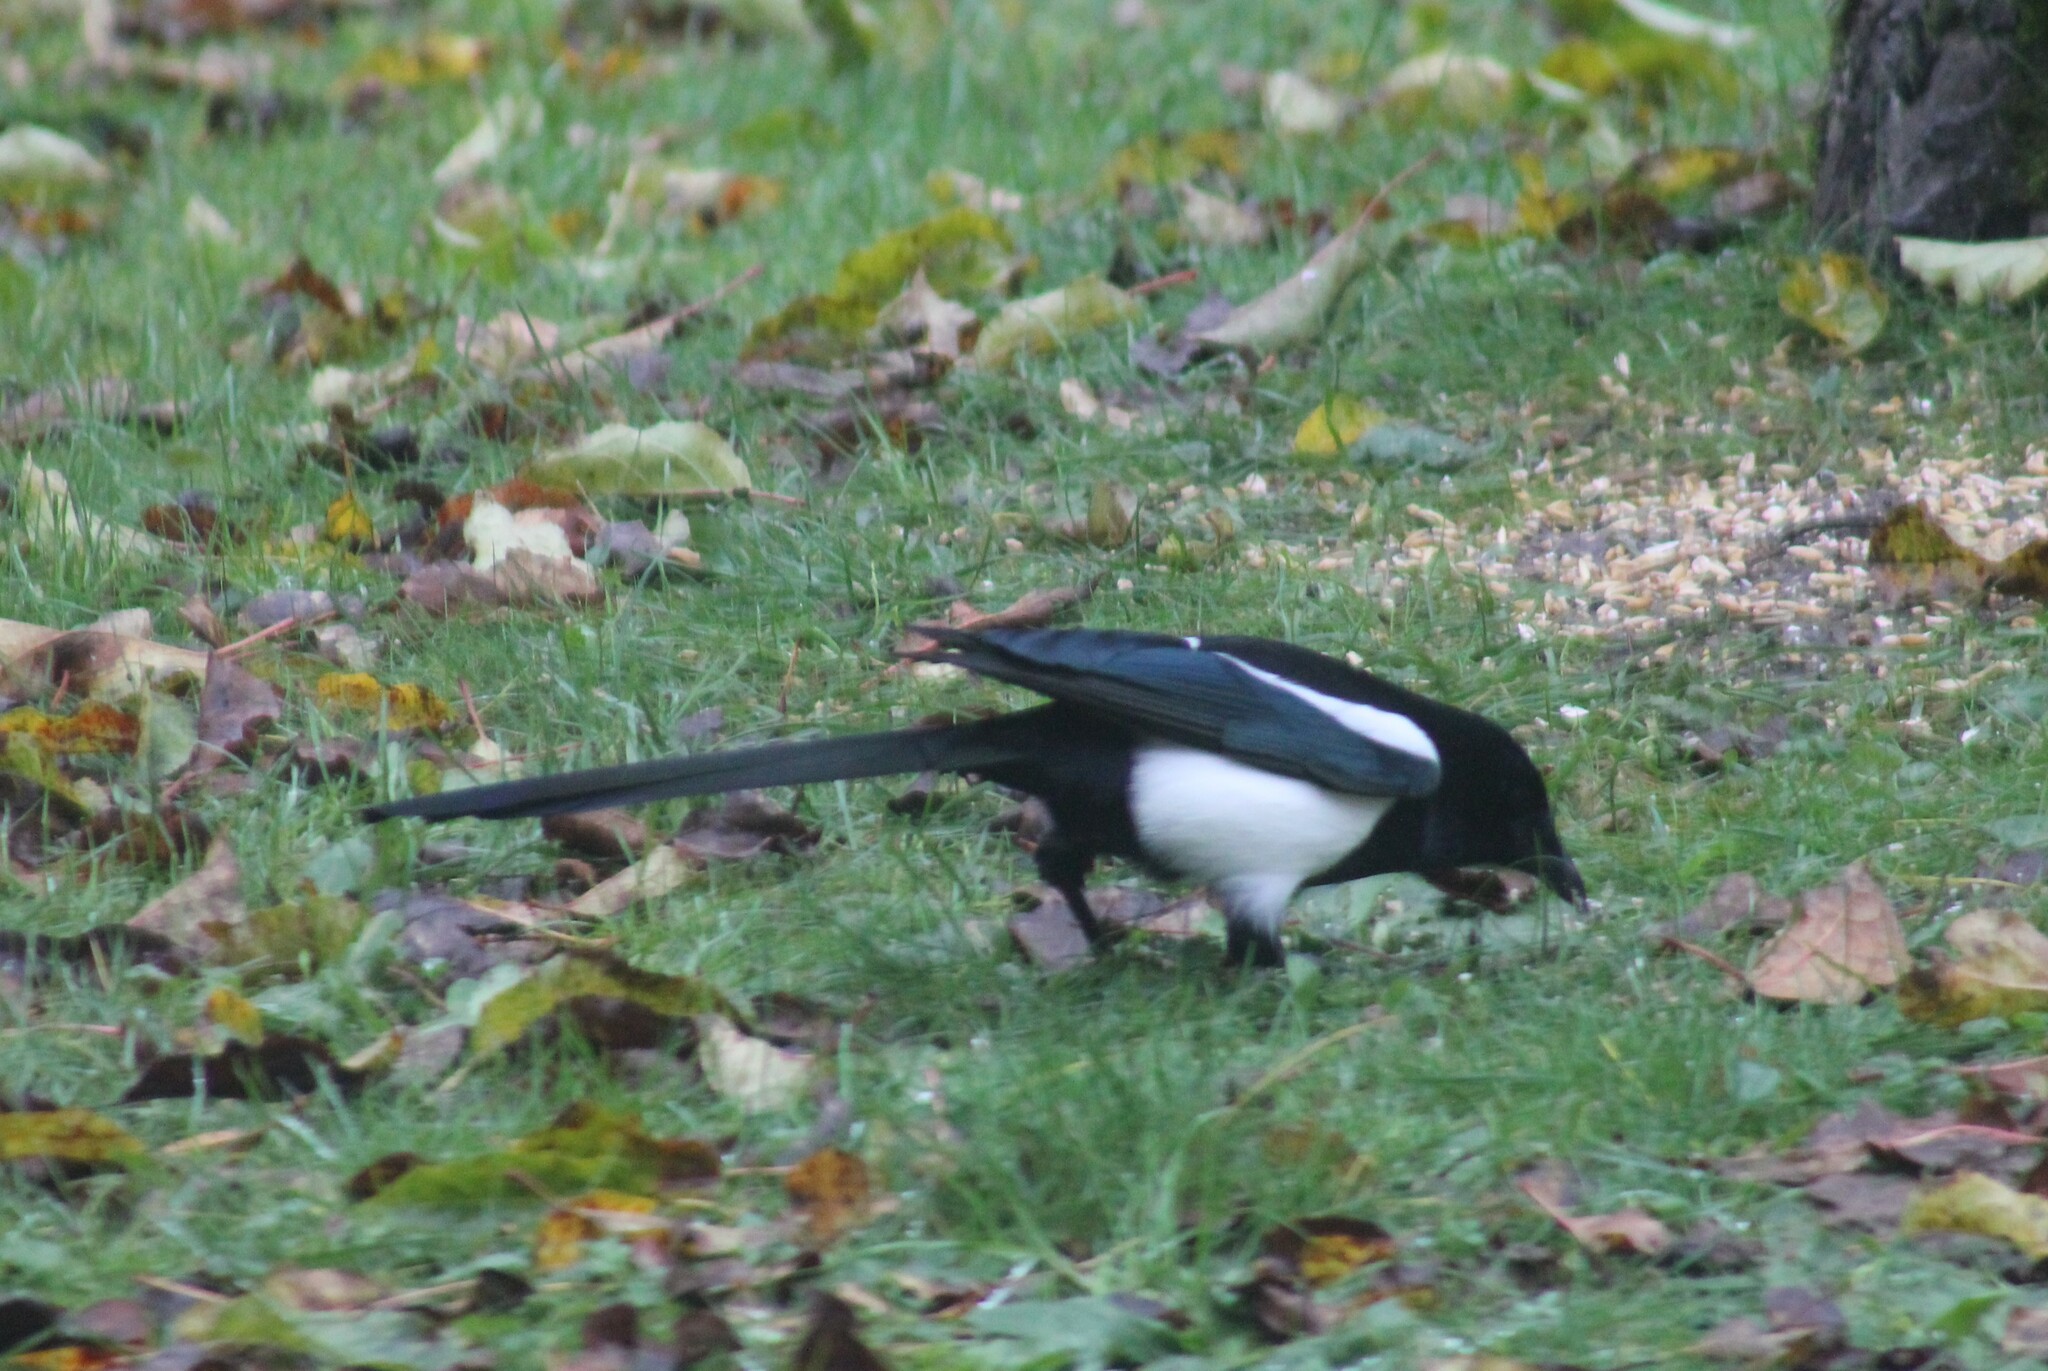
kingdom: Animalia
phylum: Chordata
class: Aves
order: Passeriformes
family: Corvidae
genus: Pica
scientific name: Pica pica
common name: Eurasian magpie
